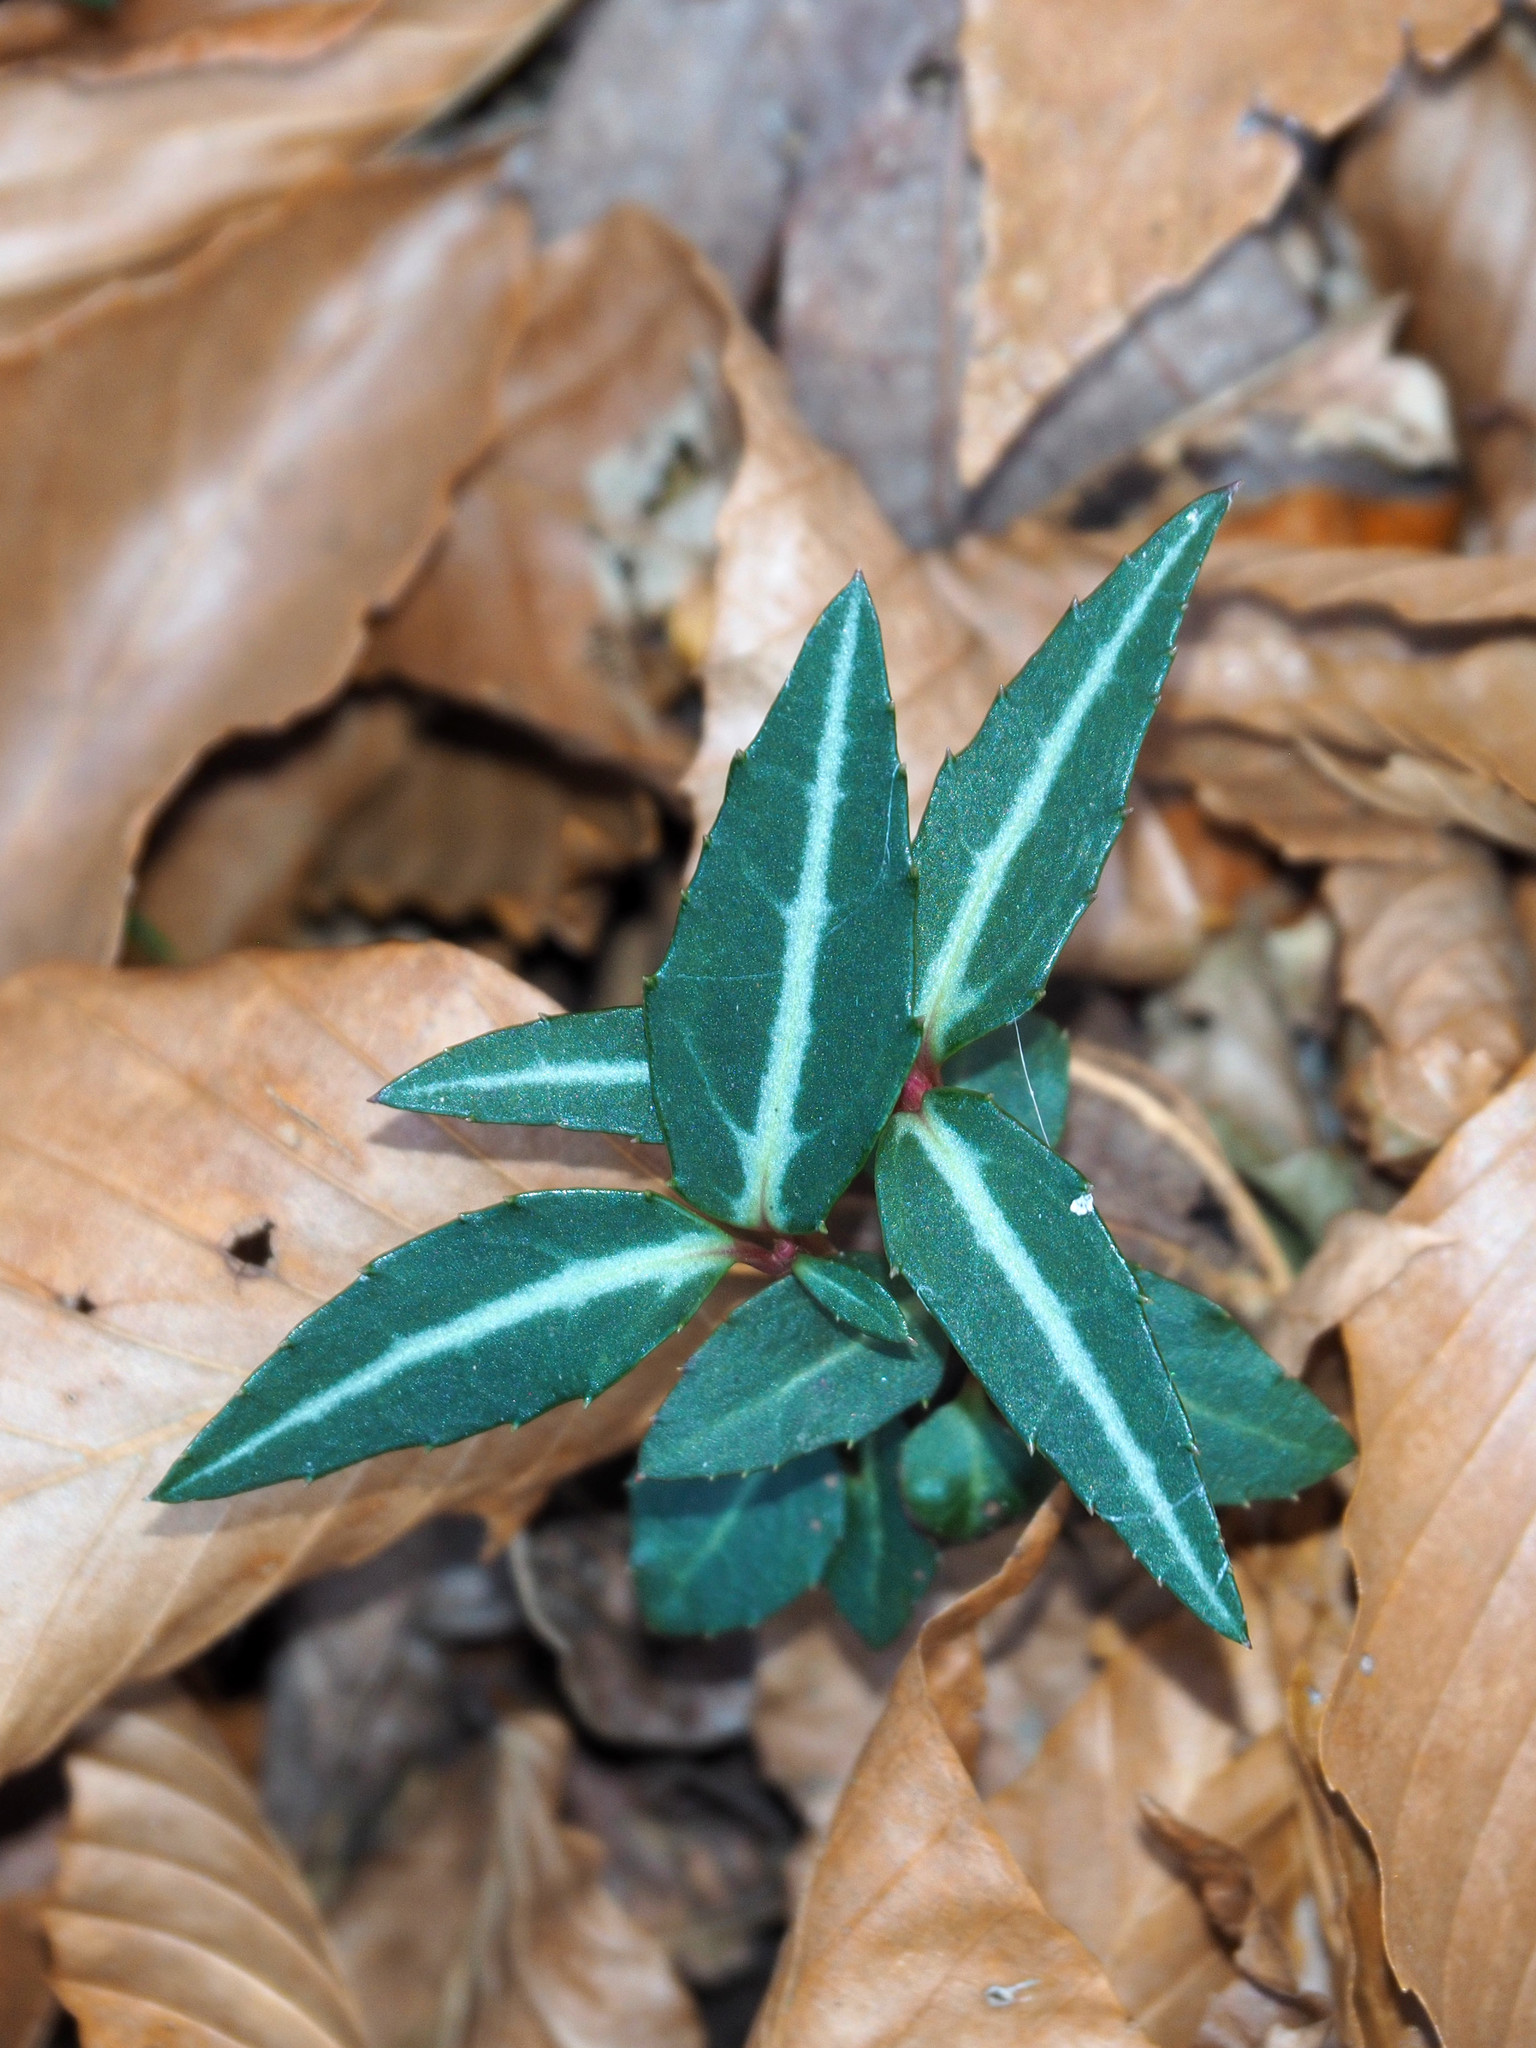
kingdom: Plantae
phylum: Tracheophyta
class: Magnoliopsida
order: Ericales
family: Ericaceae
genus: Chimaphila
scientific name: Chimaphila maculata
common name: Spotted pipsissewa
